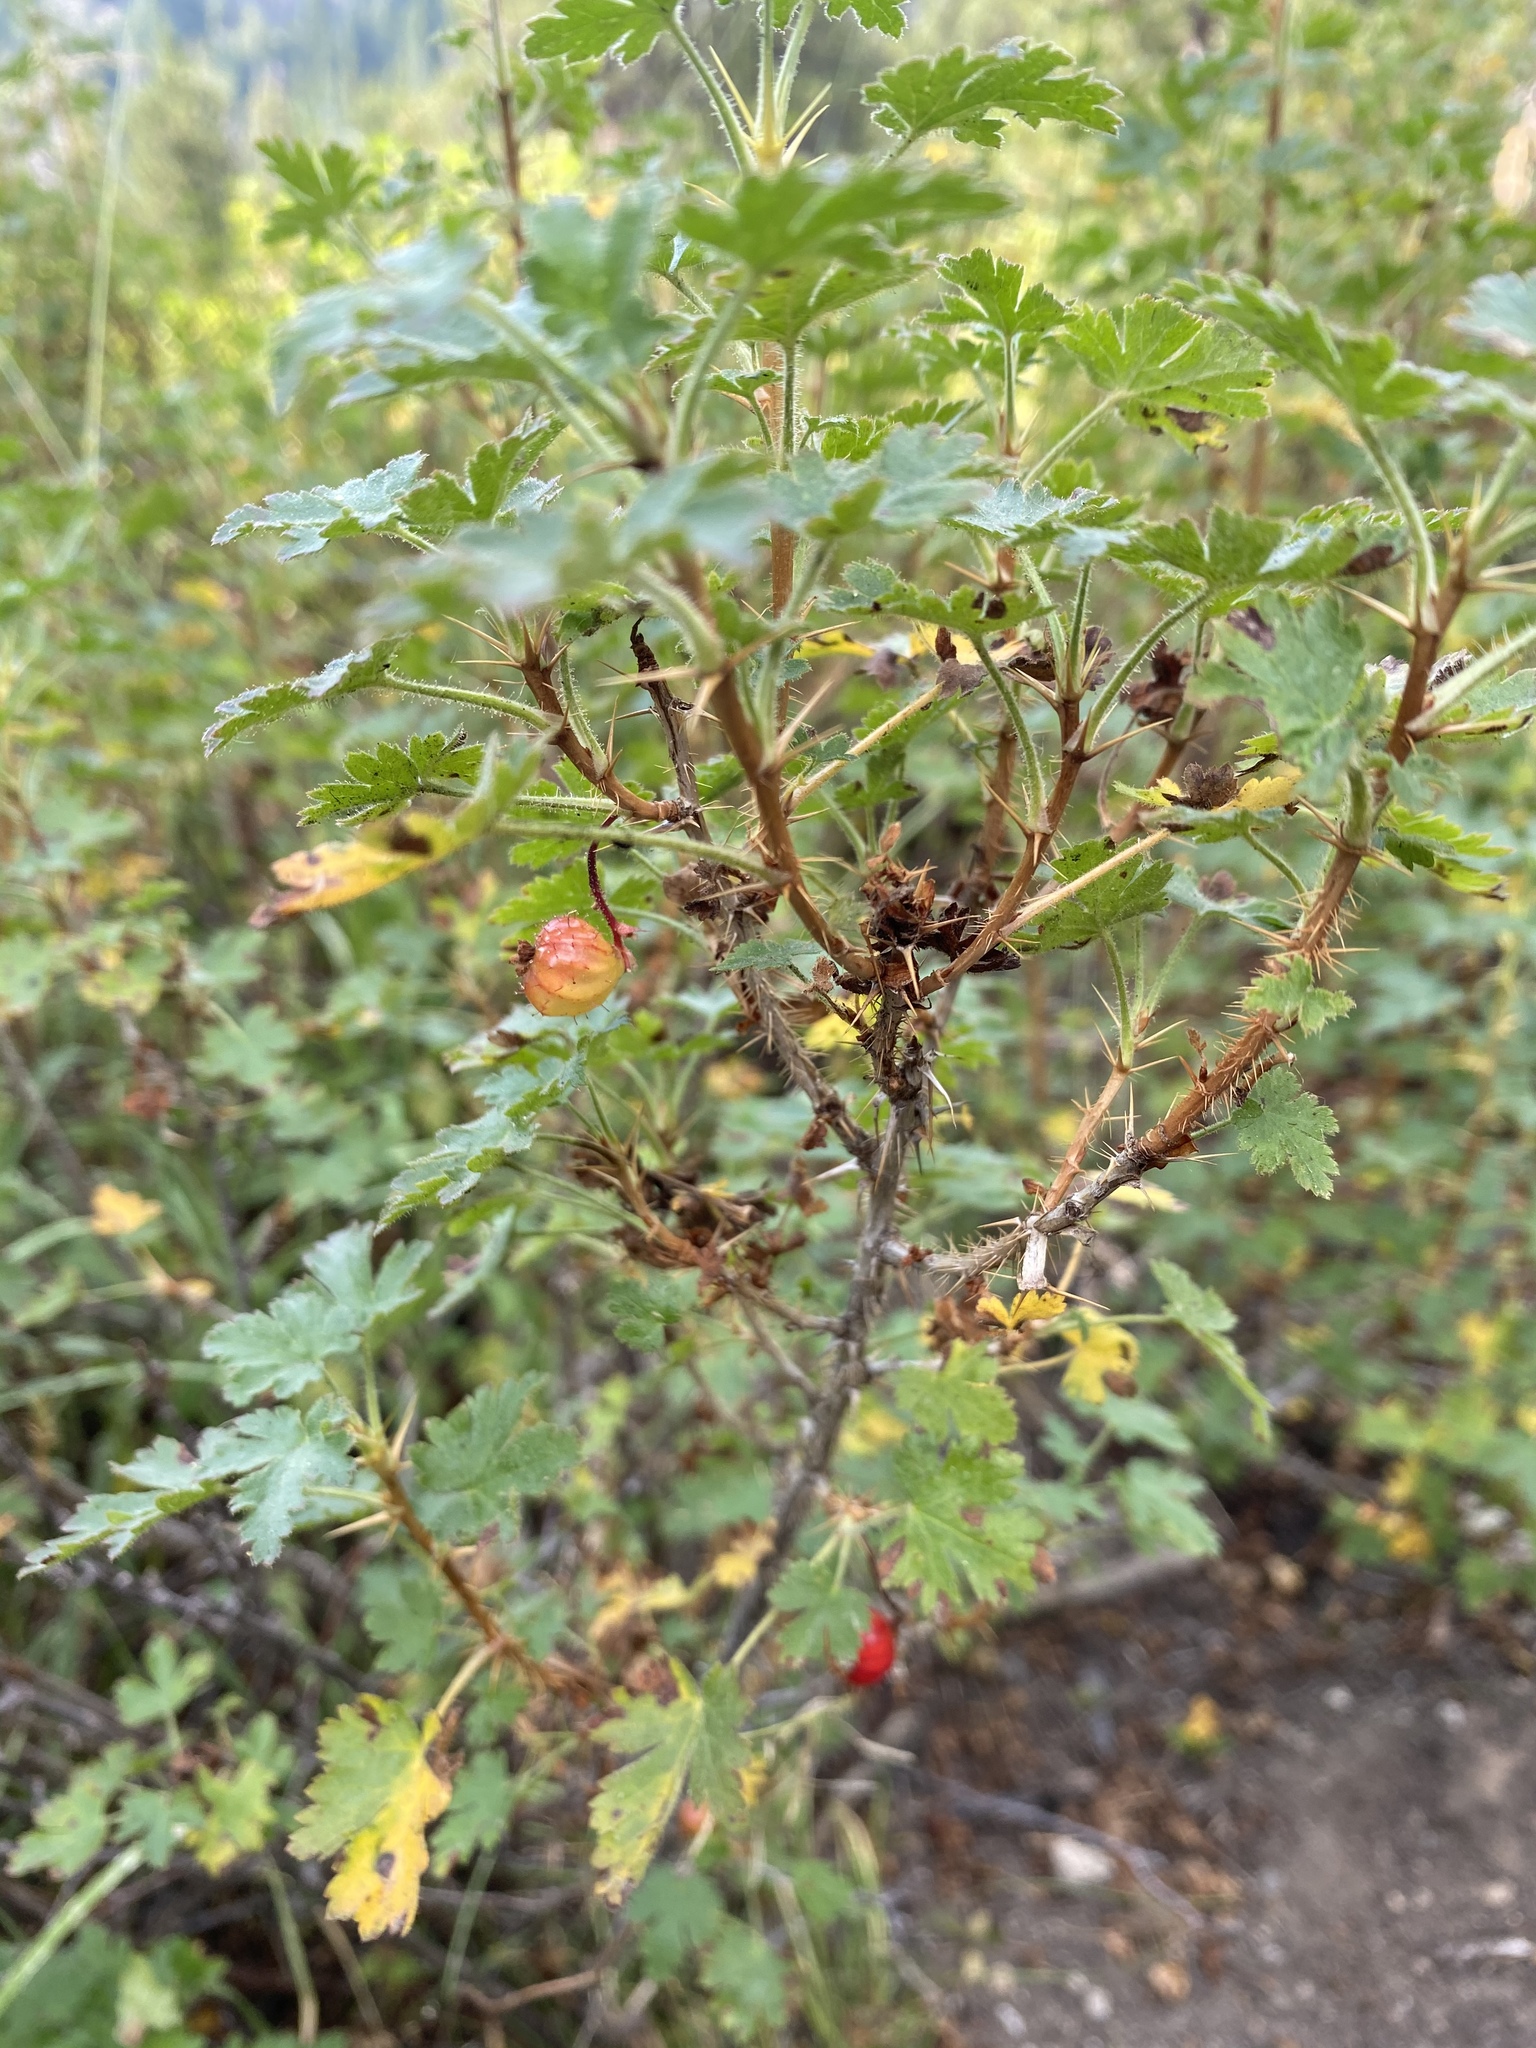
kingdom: Plantae
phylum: Tracheophyta
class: Magnoliopsida
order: Saxifragales
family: Grossulariaceae
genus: Ribes
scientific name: Ribes montigenum
